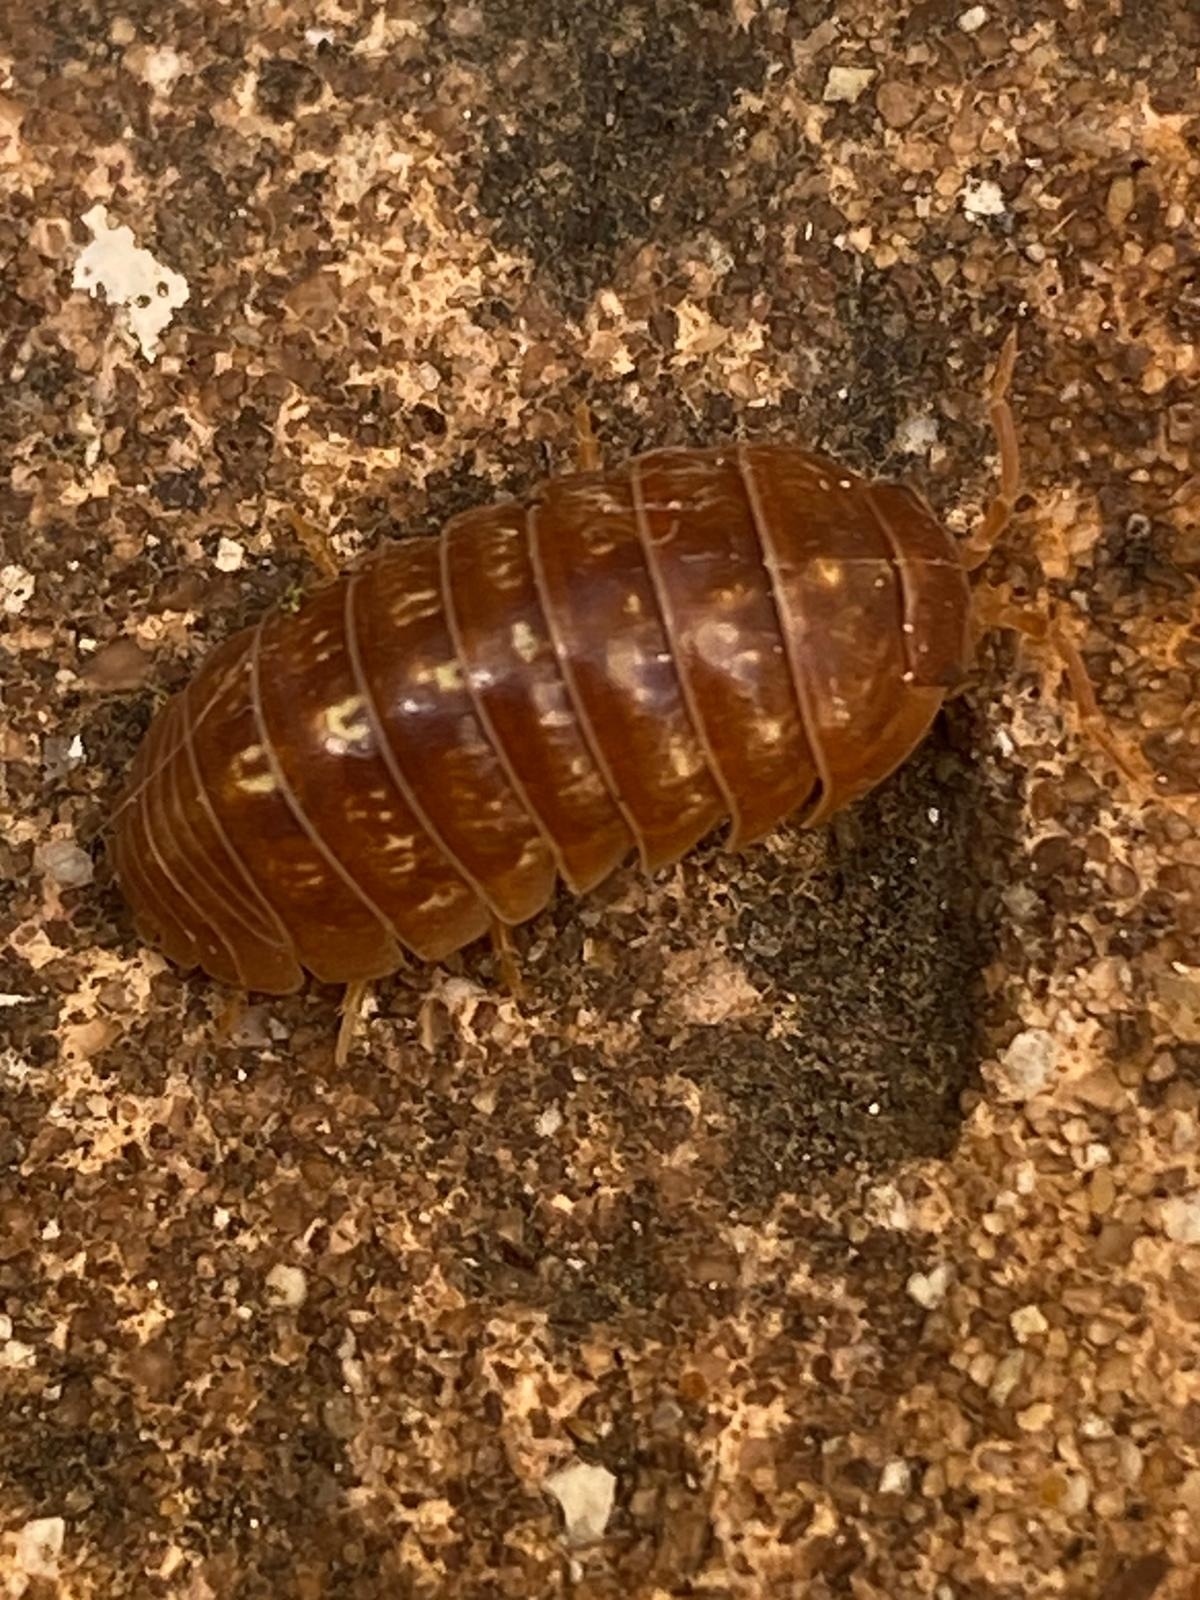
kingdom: Animalia
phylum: Arthropoda
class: Malacostraca
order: Isopoda
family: Armadillidiidae
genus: Armadillidium
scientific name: Armadillidium vulgare
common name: Common pill woodlouse
